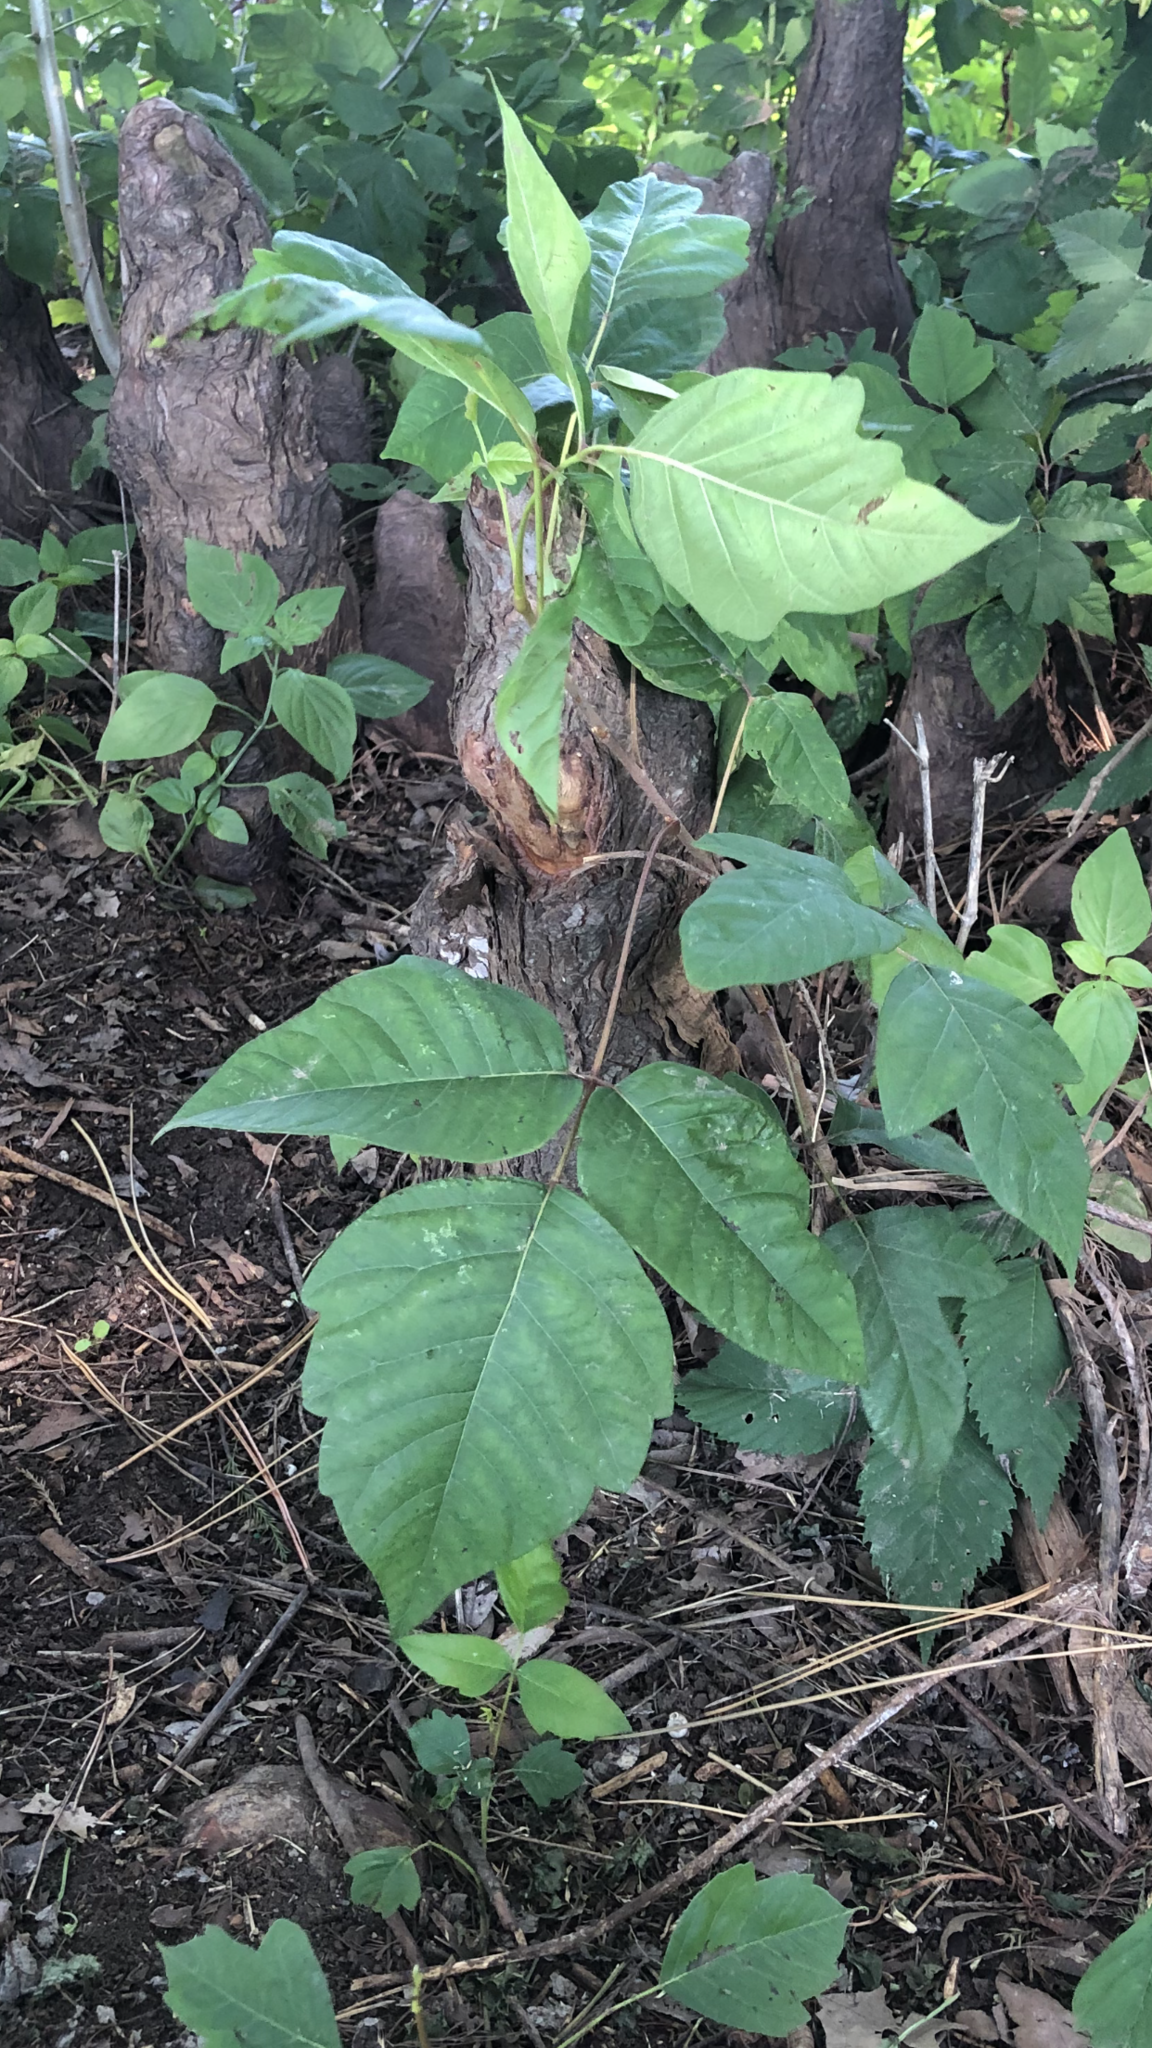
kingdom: Plantae
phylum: Tracheophyta
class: Magnoliopsida
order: Sapindales
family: Anacardiaceae
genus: Toxicodendron
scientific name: Toxicodendron radicans
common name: Poison ivy
